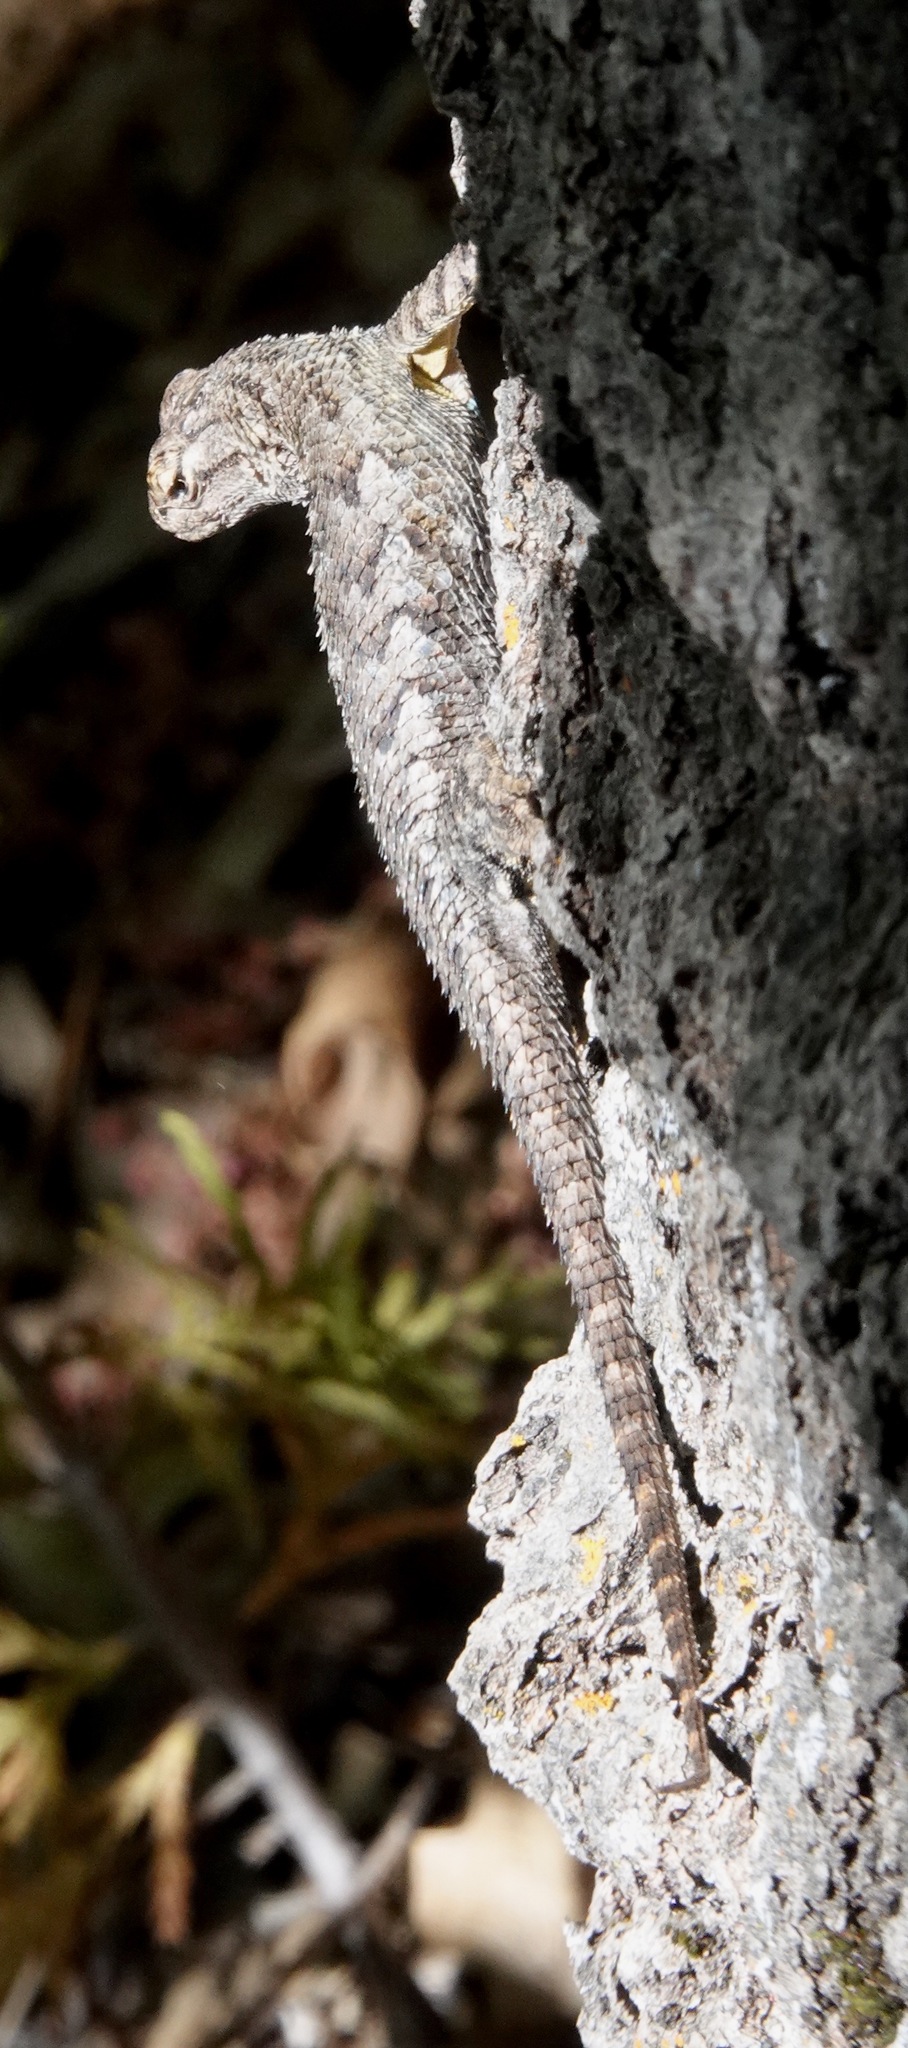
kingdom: Animalia
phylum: Chordata
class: Squamata
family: Phrynosomatidae
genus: Sceloporus
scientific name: Sceloporus occidentalis
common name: Western fence lizard
